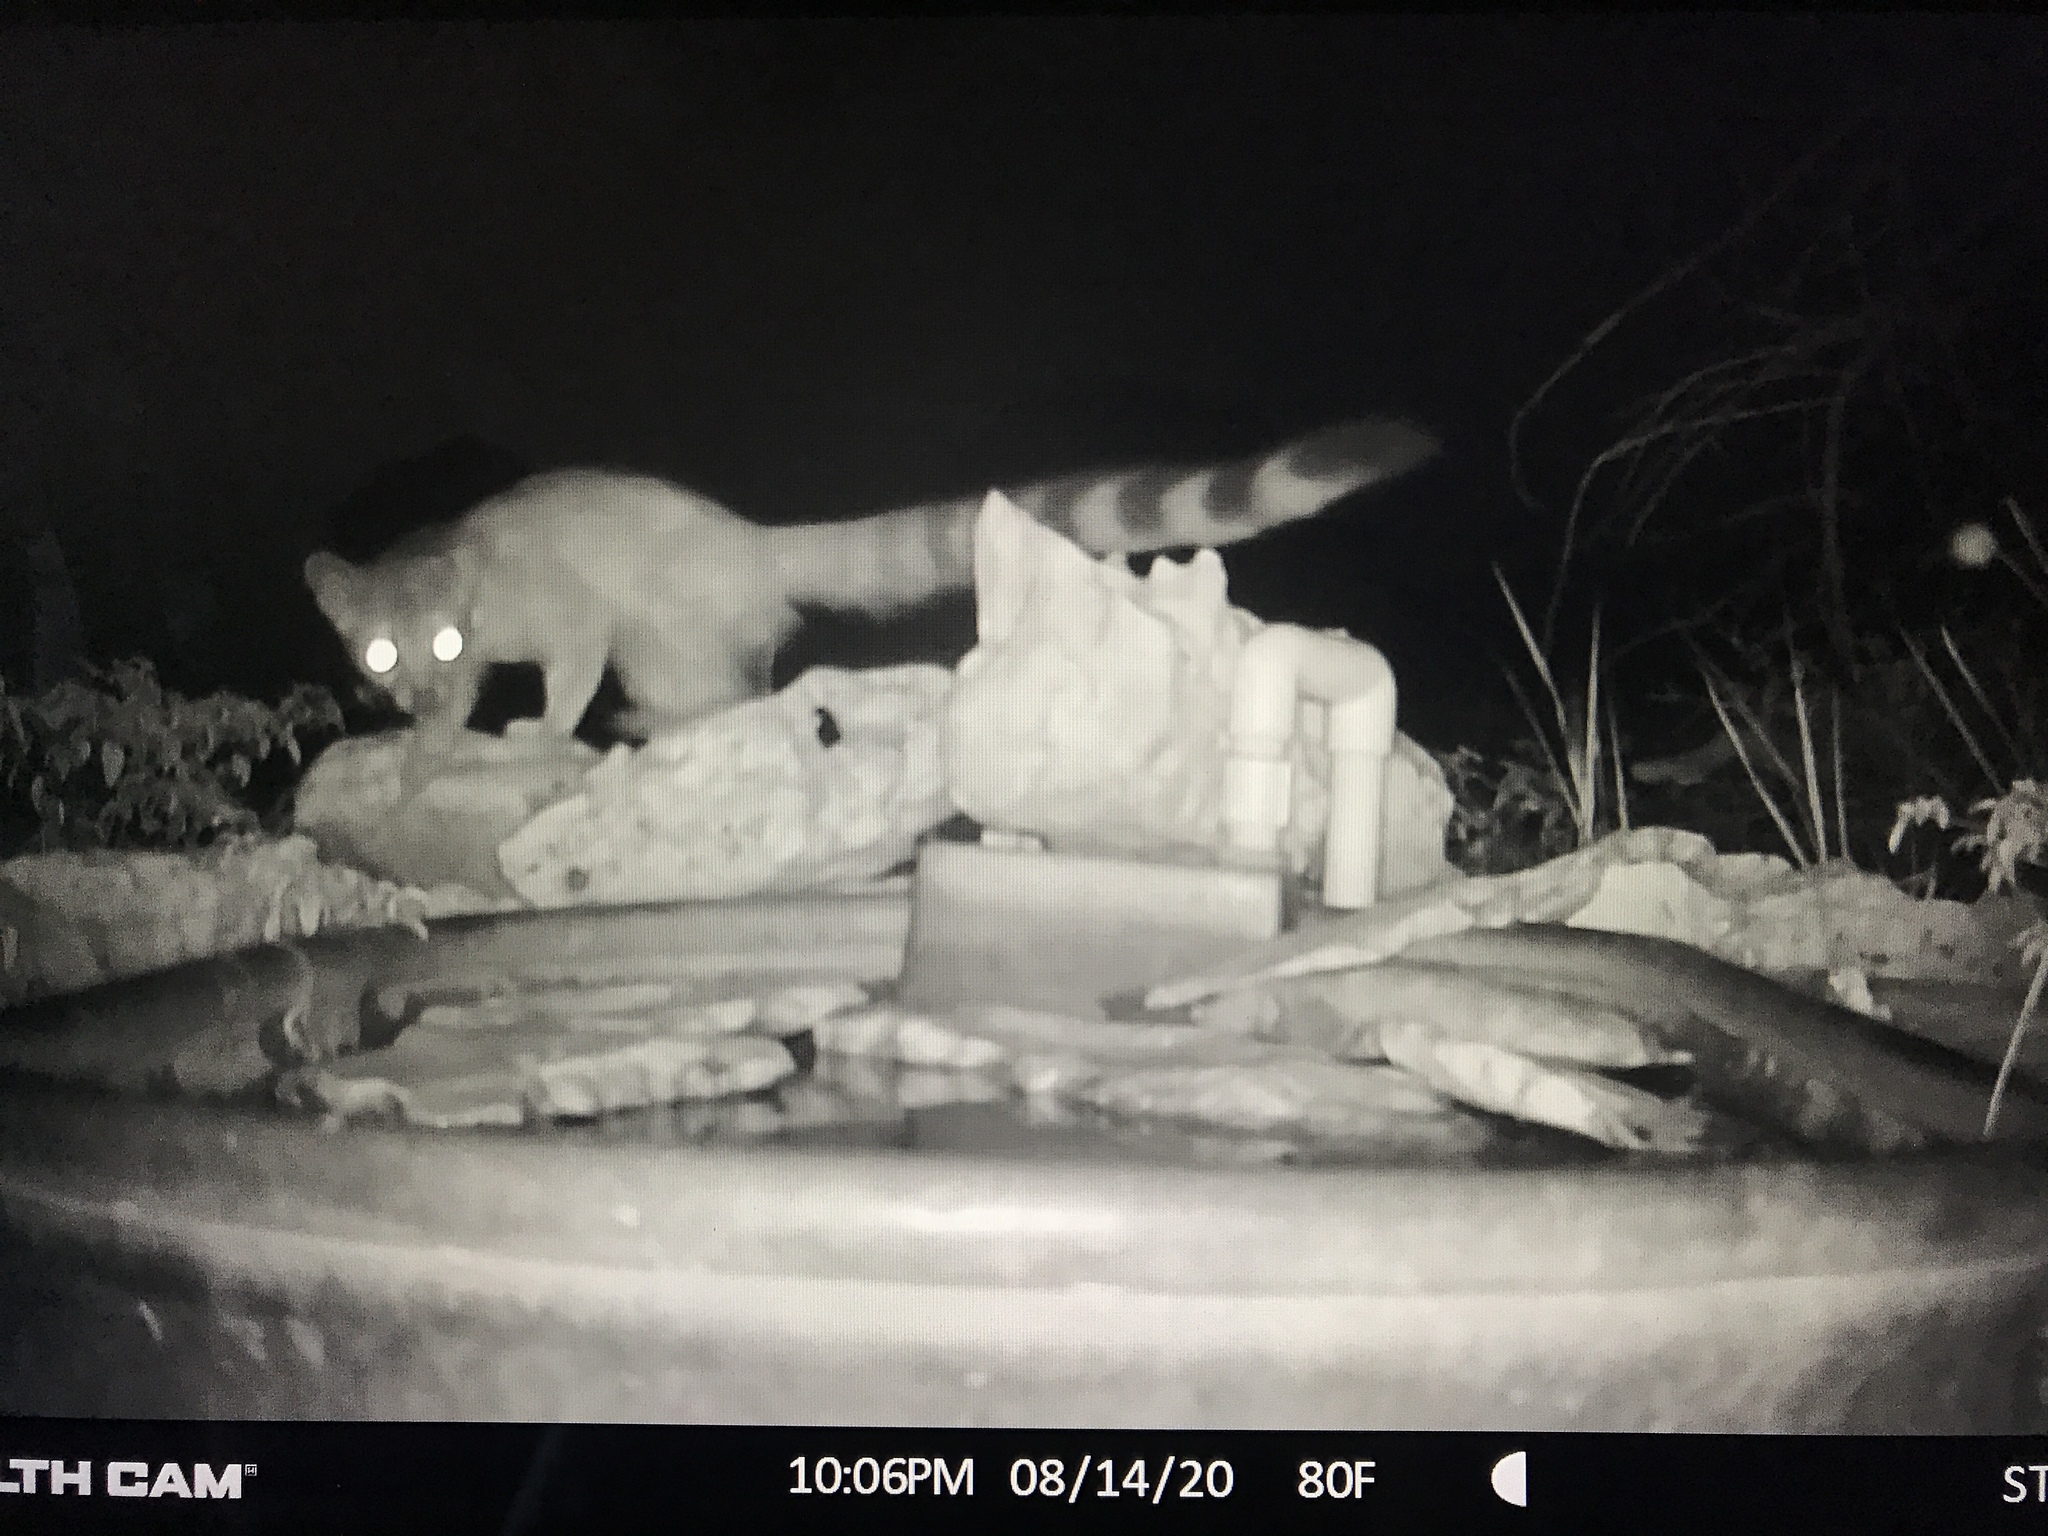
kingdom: Animalia
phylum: Chordata
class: Mammalia
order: Carnivora
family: Procyonidae
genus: Bassariscus
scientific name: Bassariscus astutus
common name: Ringtail
